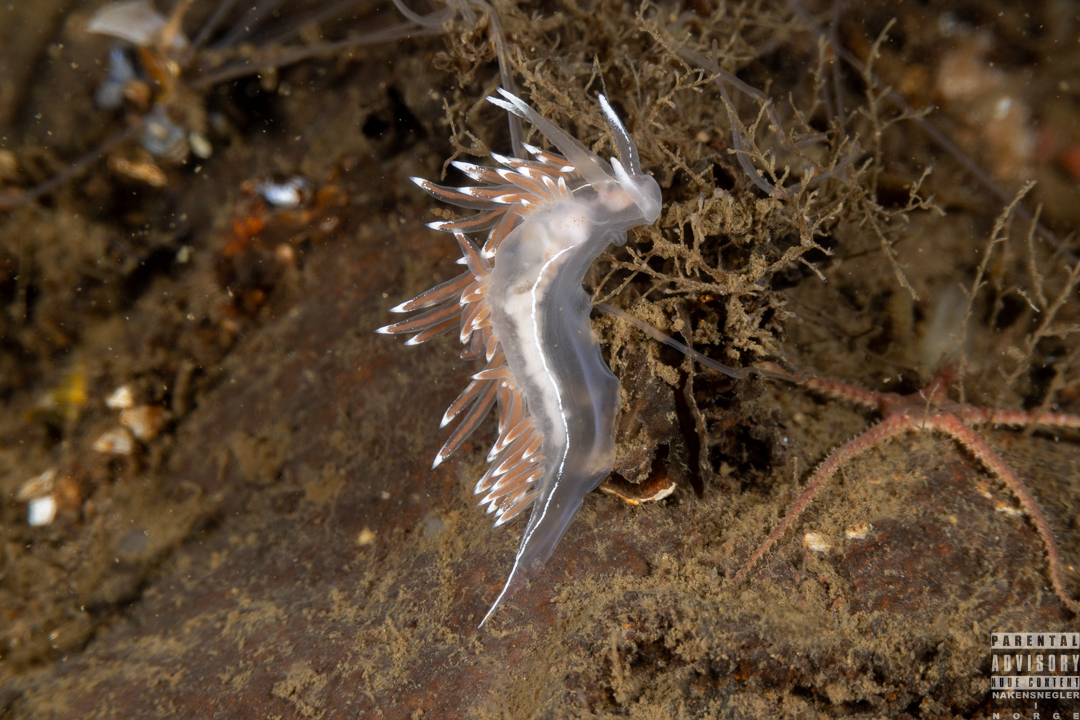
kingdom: Animalia
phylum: Mollusca
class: Gastropoda
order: Nudibranchia
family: Coryphellidae
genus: Coryphella
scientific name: Coryphella lineata
